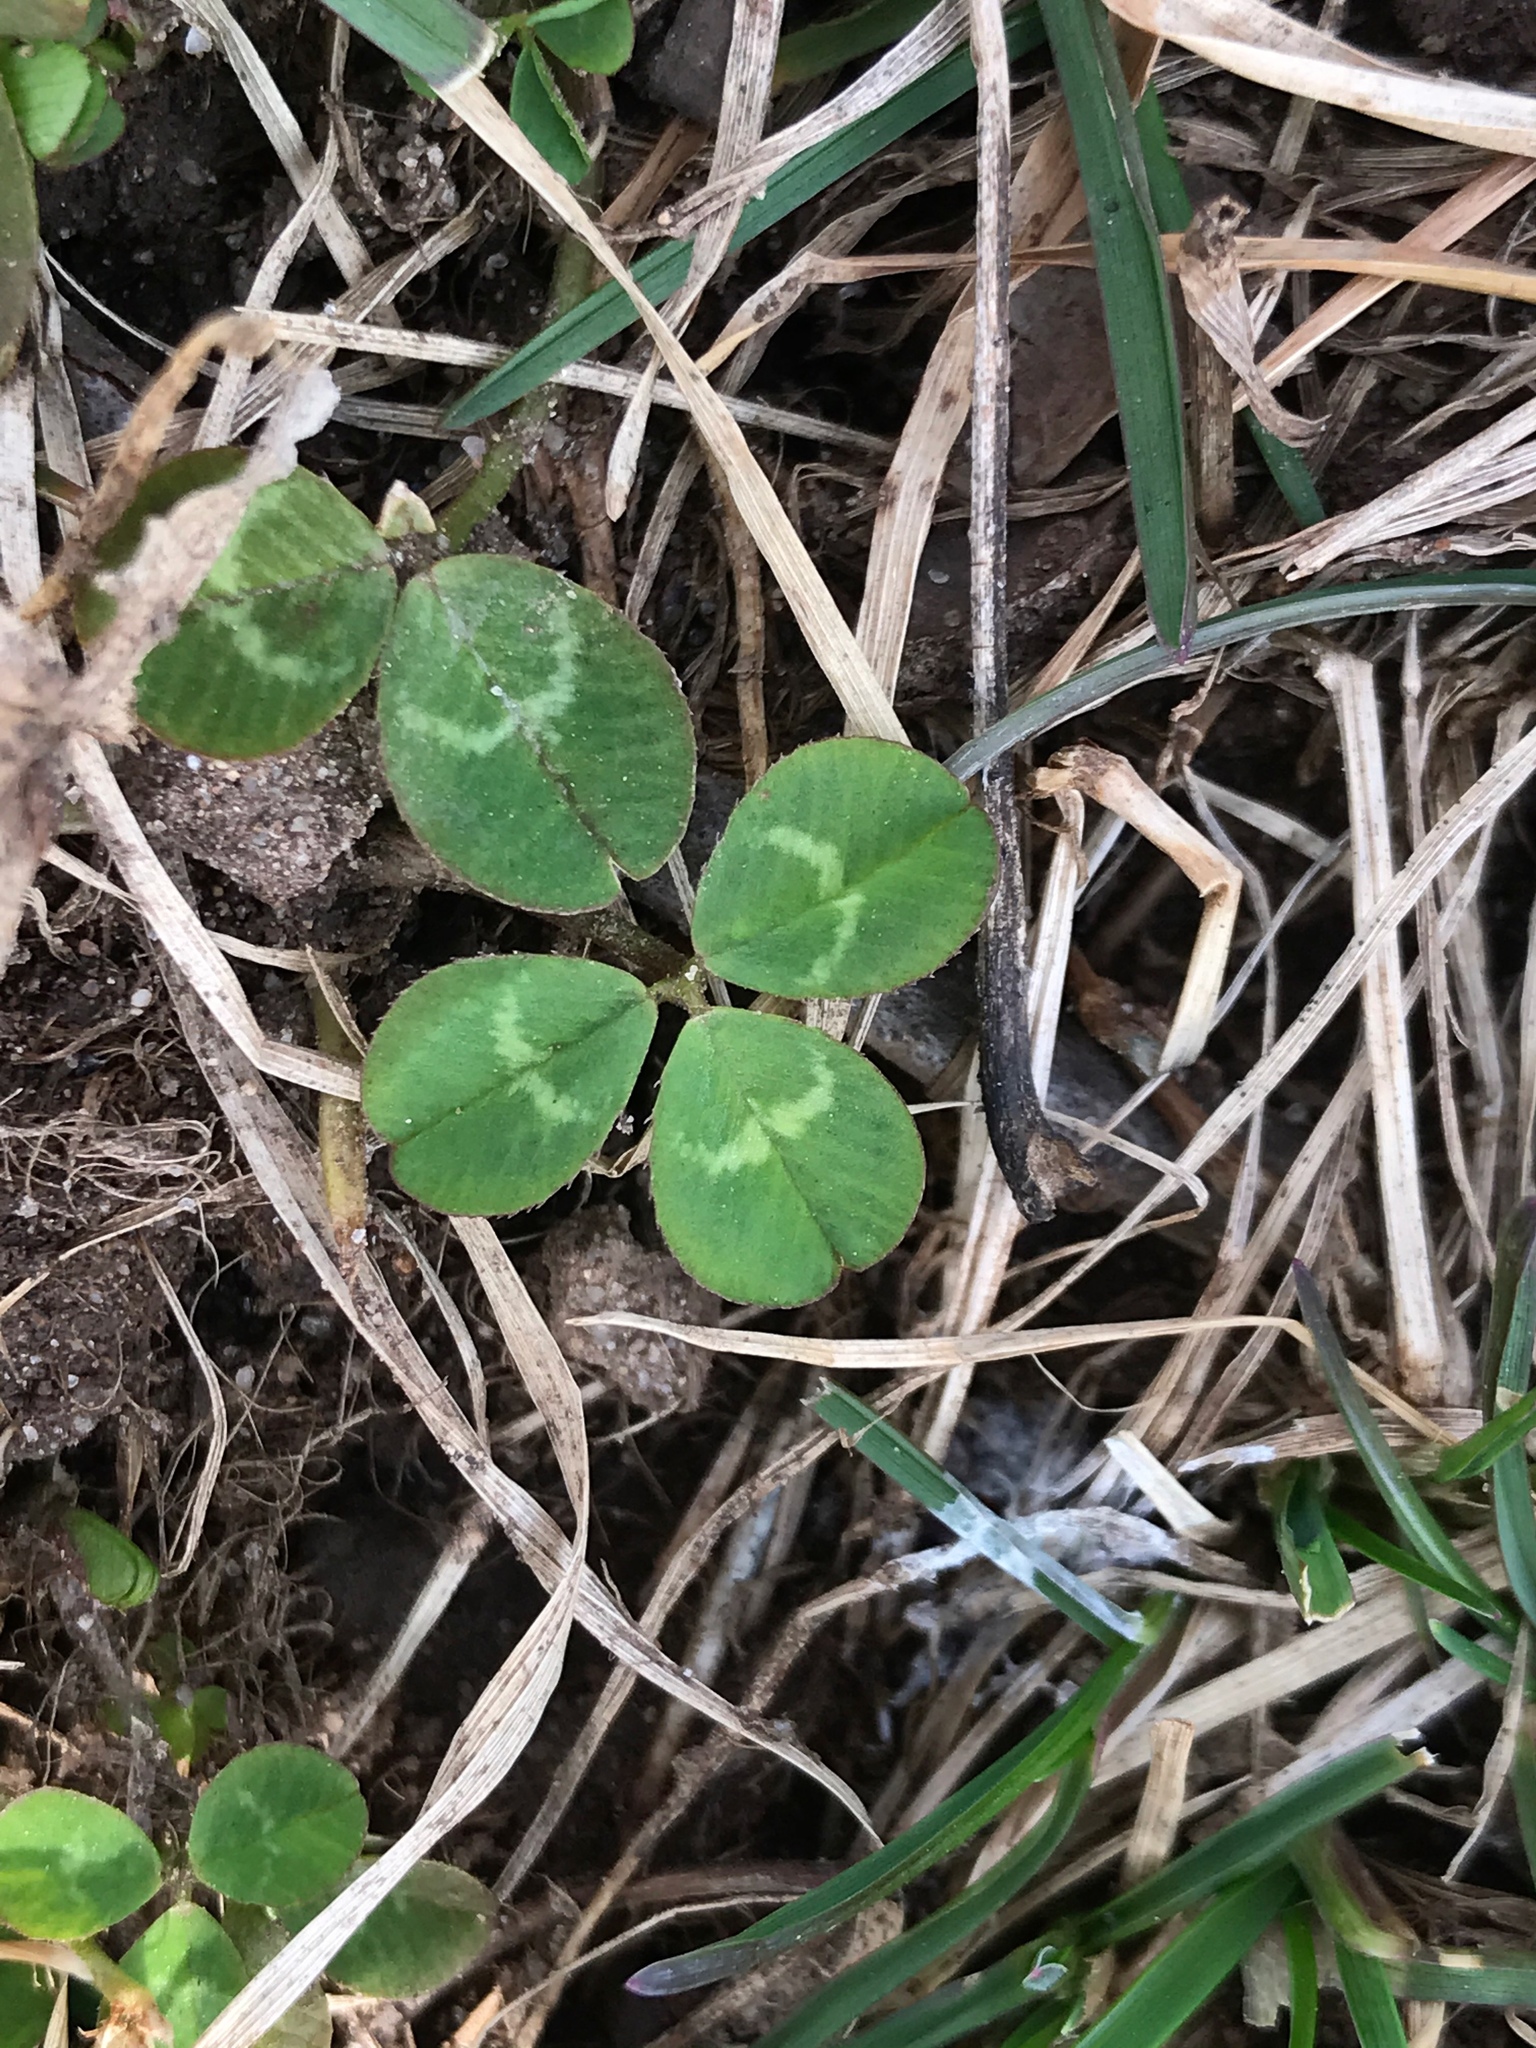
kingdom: Plantae
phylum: Tracheophyta
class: Magnoliopsida
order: Fabales
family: Fabaceae
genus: Trifolium
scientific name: Trifolium repens
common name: White clover
